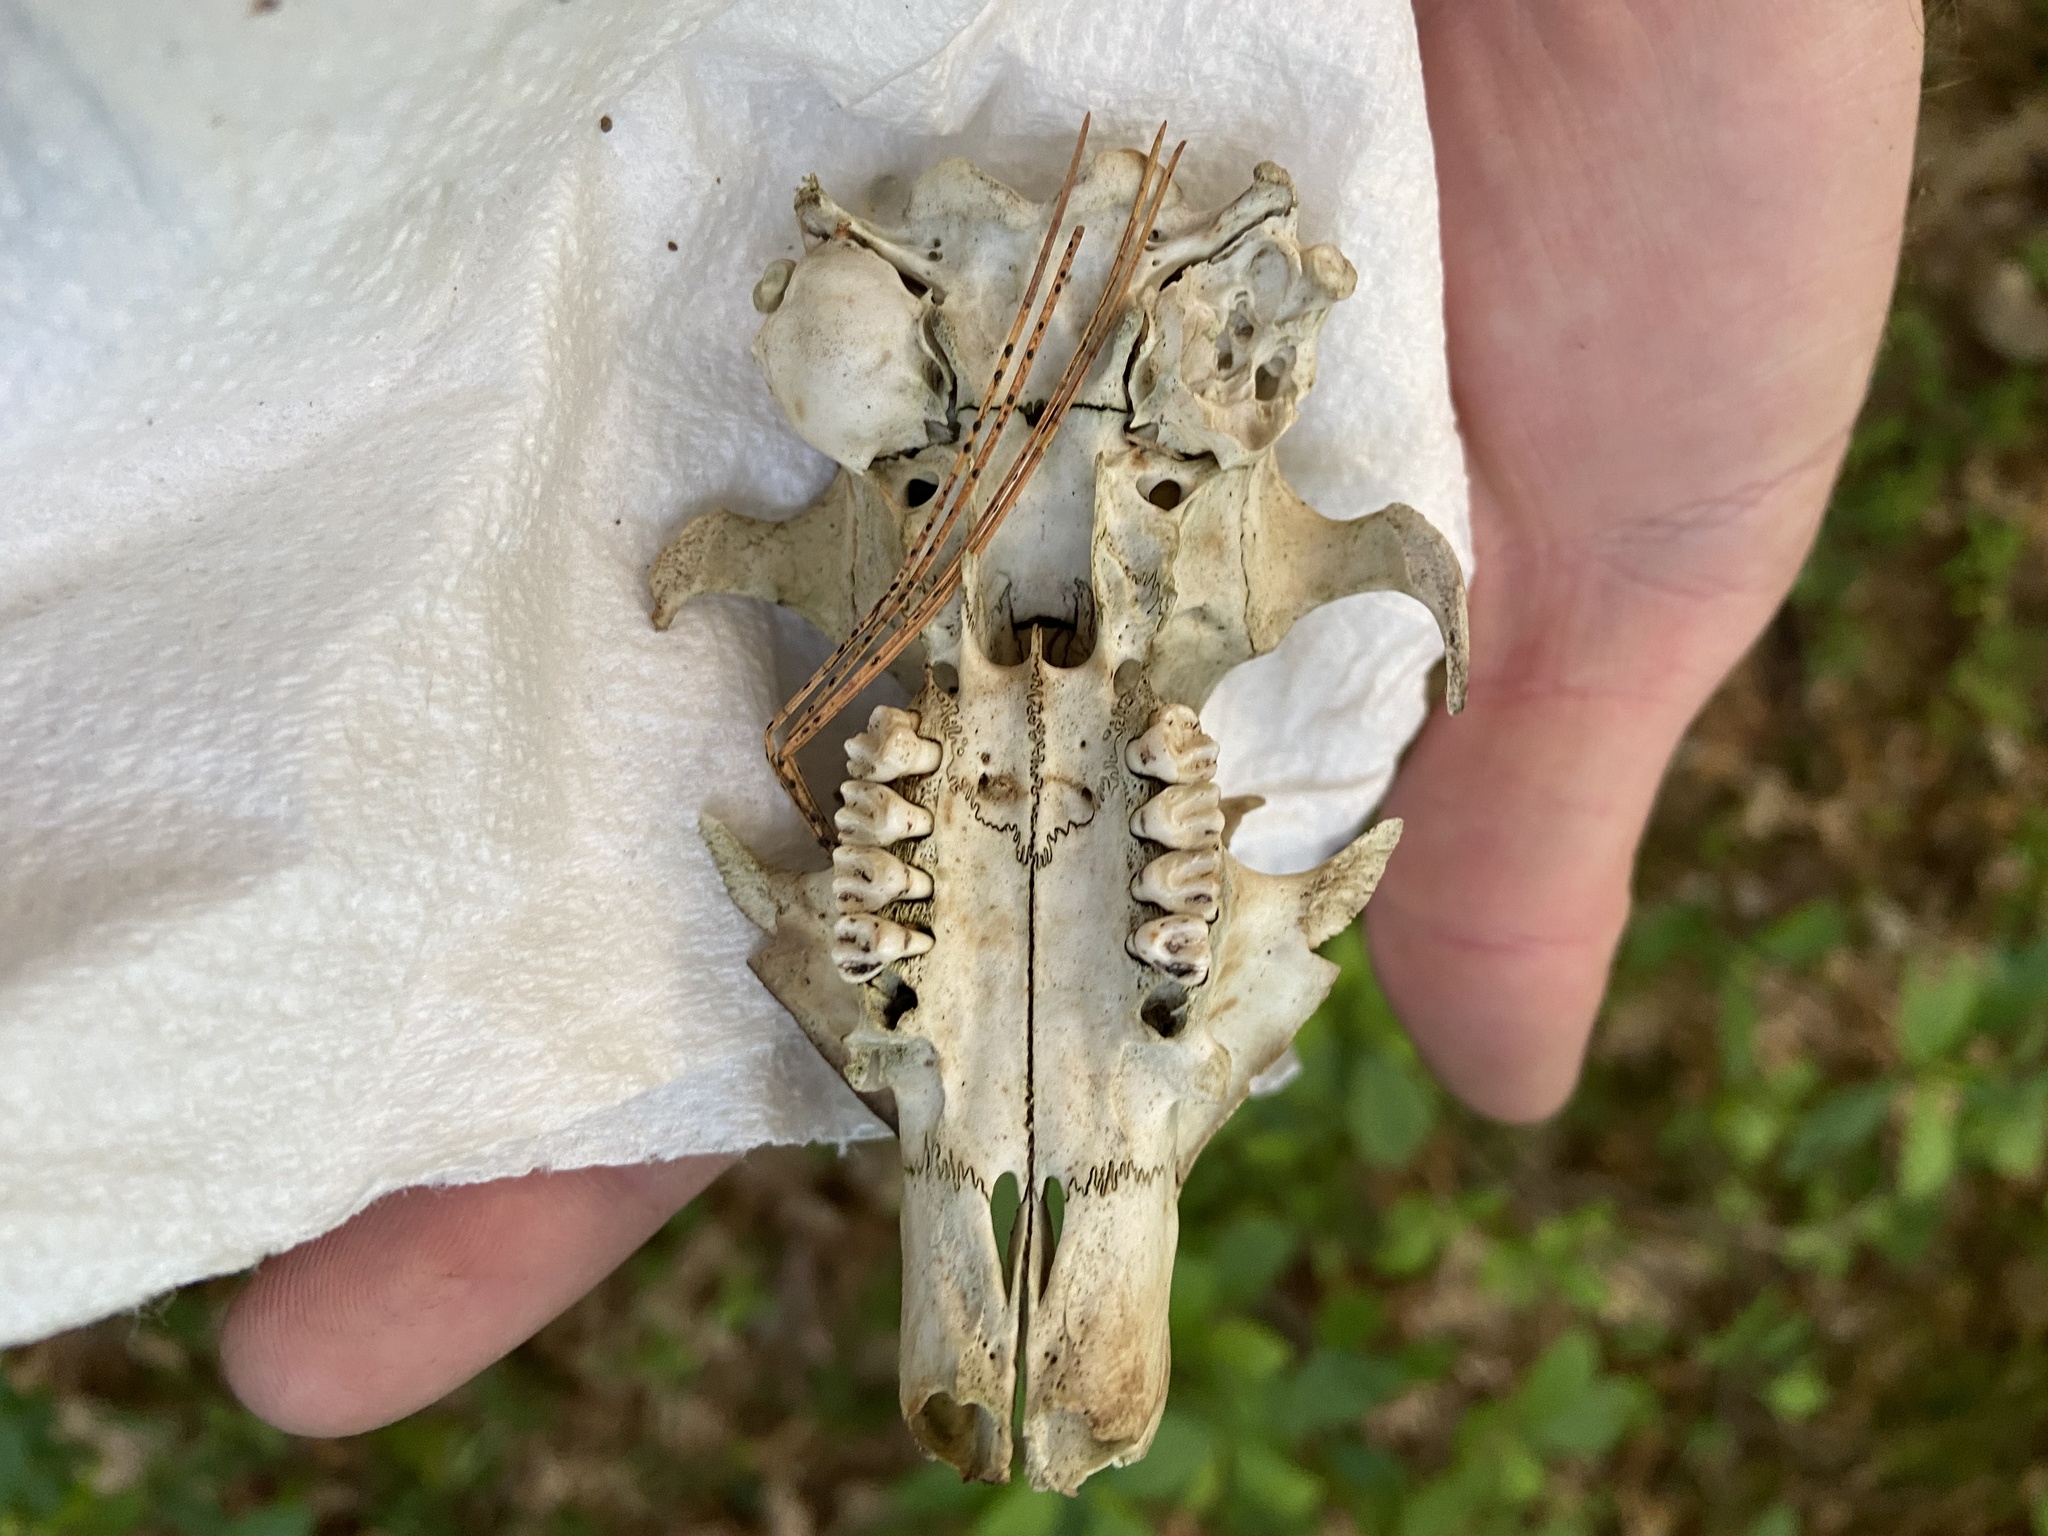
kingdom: Animalia
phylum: Chordata
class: Mammalia
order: Rodentia
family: Sciuridae
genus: Marmota
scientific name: Marmota monax
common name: Groundhog
